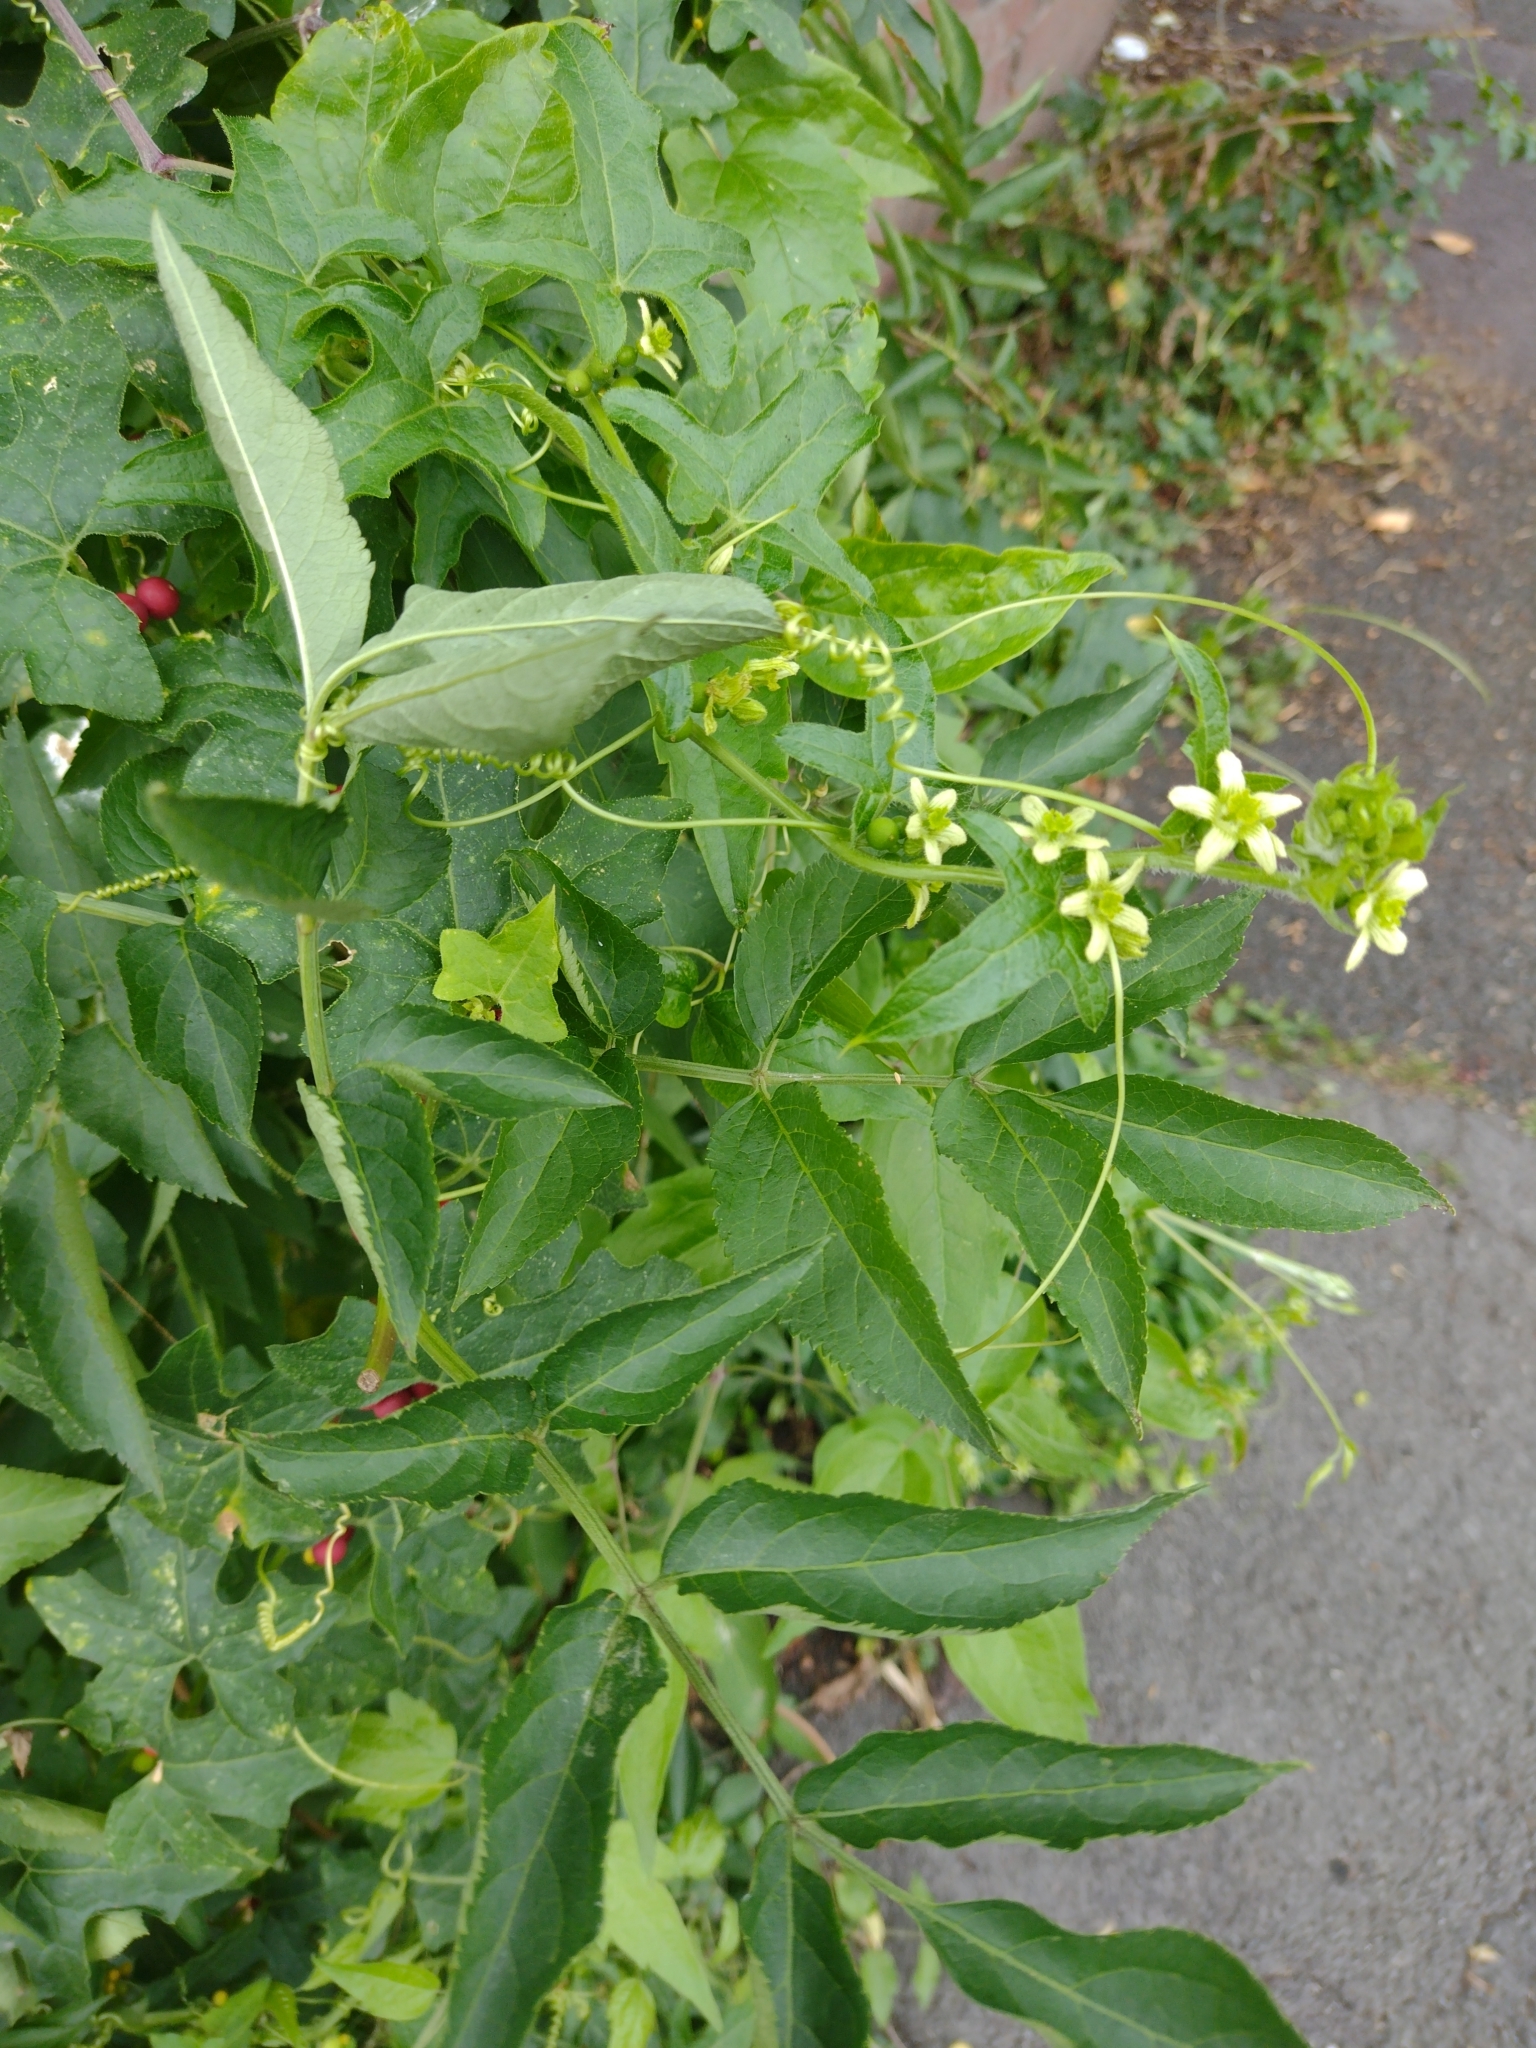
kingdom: Plantae
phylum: Tracheophyta
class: Magnoliopsida
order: Cucurbitales
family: Cucurbitaceae
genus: Bryonia
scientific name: Bryonia cretica
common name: Cretan bryony
